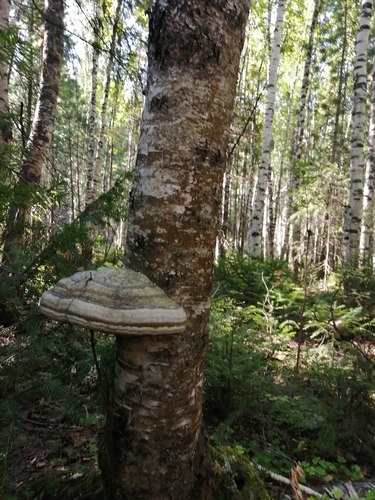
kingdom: Fungi
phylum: Basidiomycota
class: Agaricomycetes
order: Polyporales
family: Polyporaceae
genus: Fomes
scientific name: Fomes fomentarius
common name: Hoof fungus
